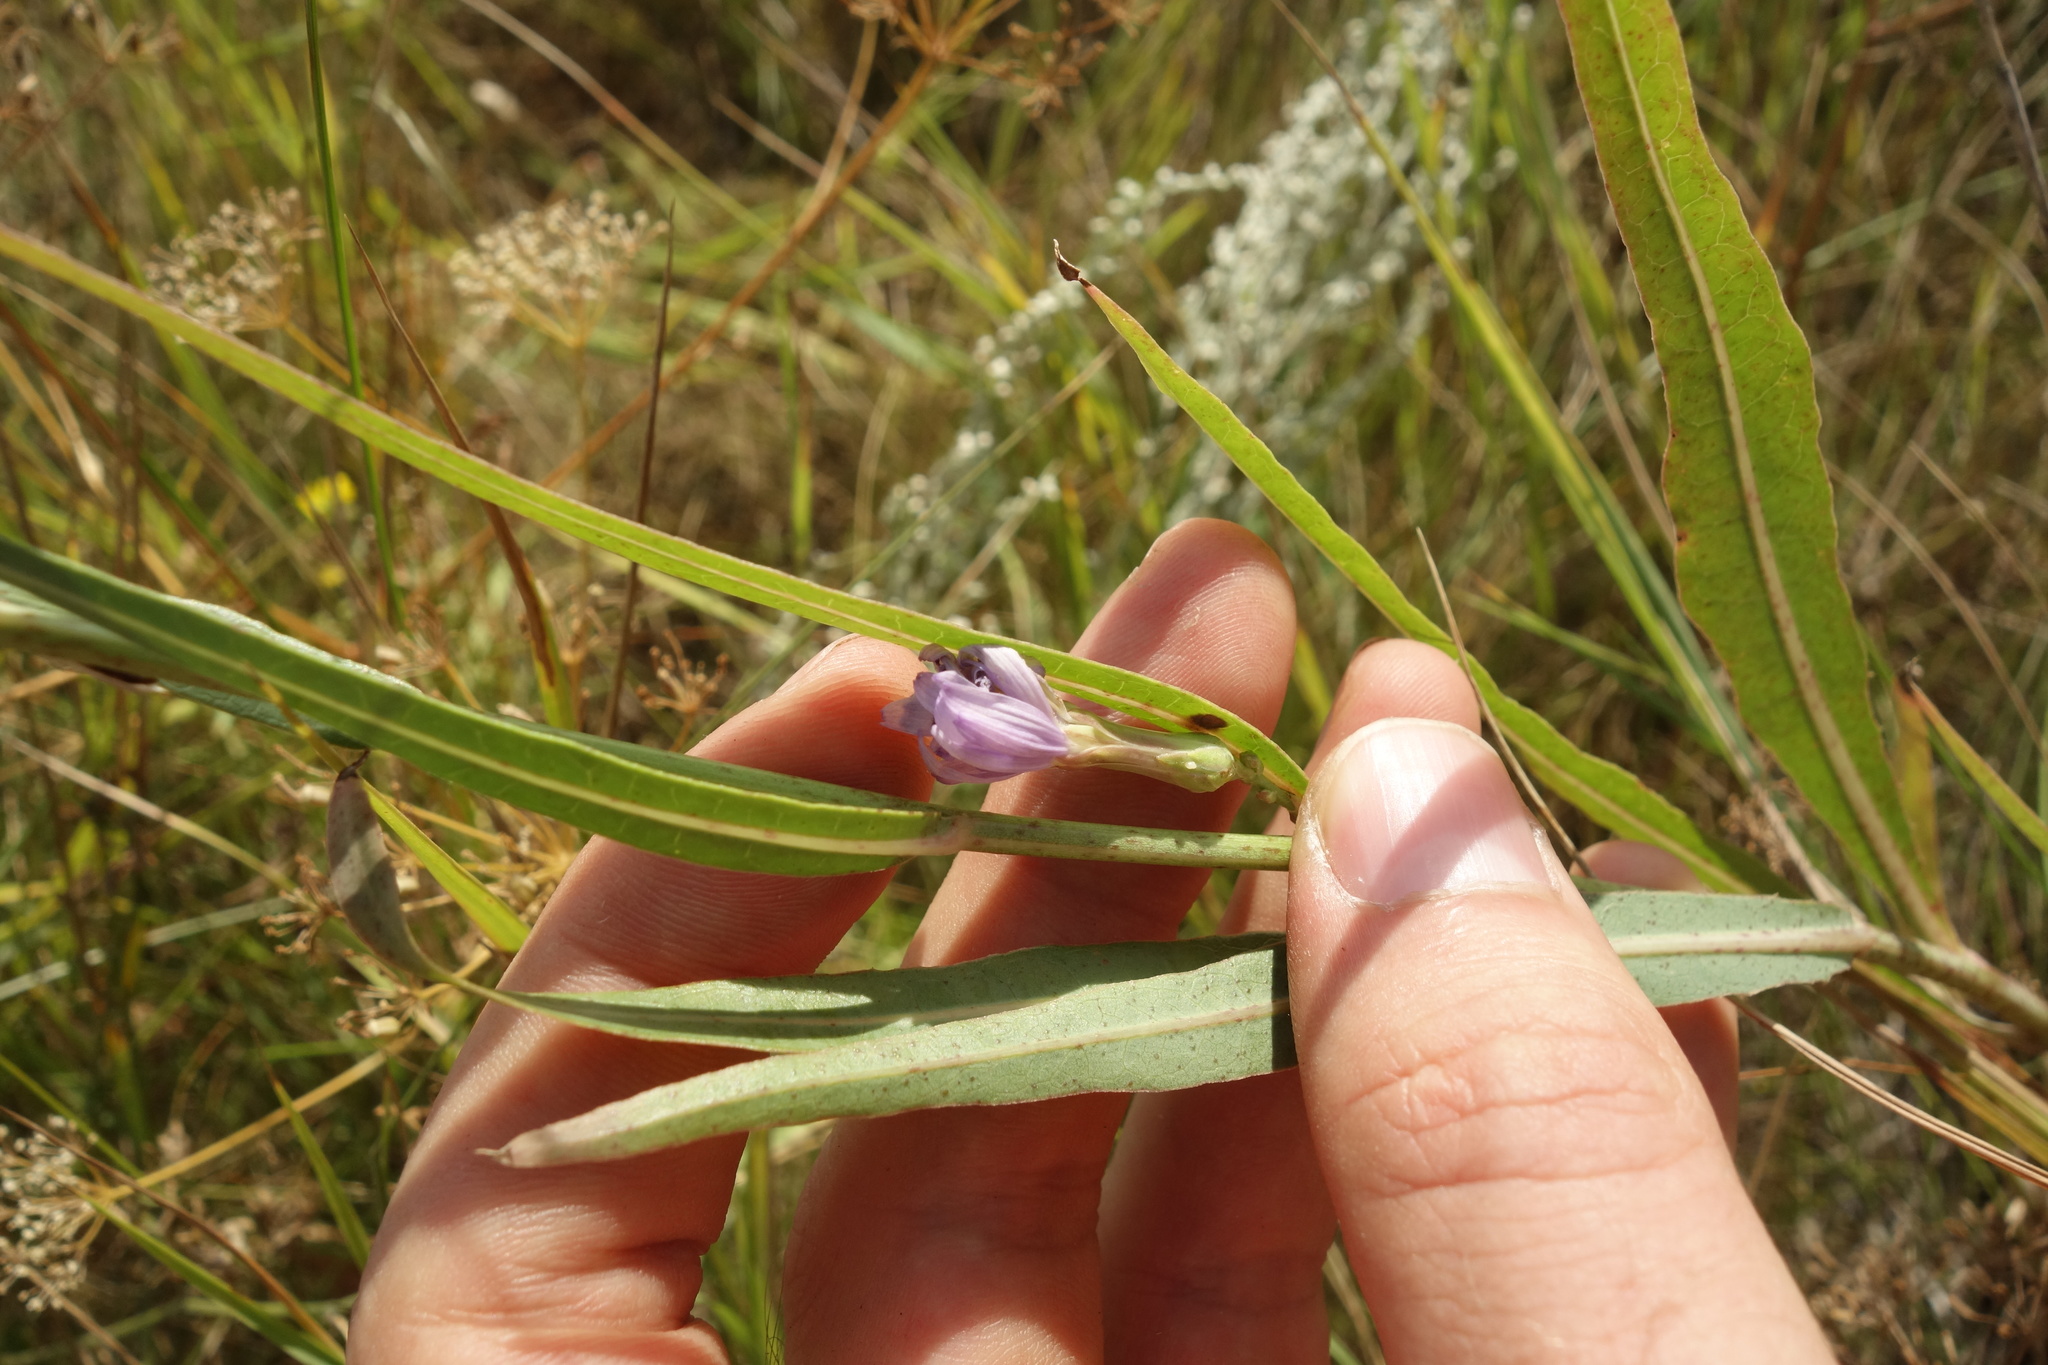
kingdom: Plantae
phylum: Tracheophyta
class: Magnoliopsida
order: Asterales
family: Asteraceae
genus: Lactuca
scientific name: Lactuca tatarica
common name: Blue lettuce
